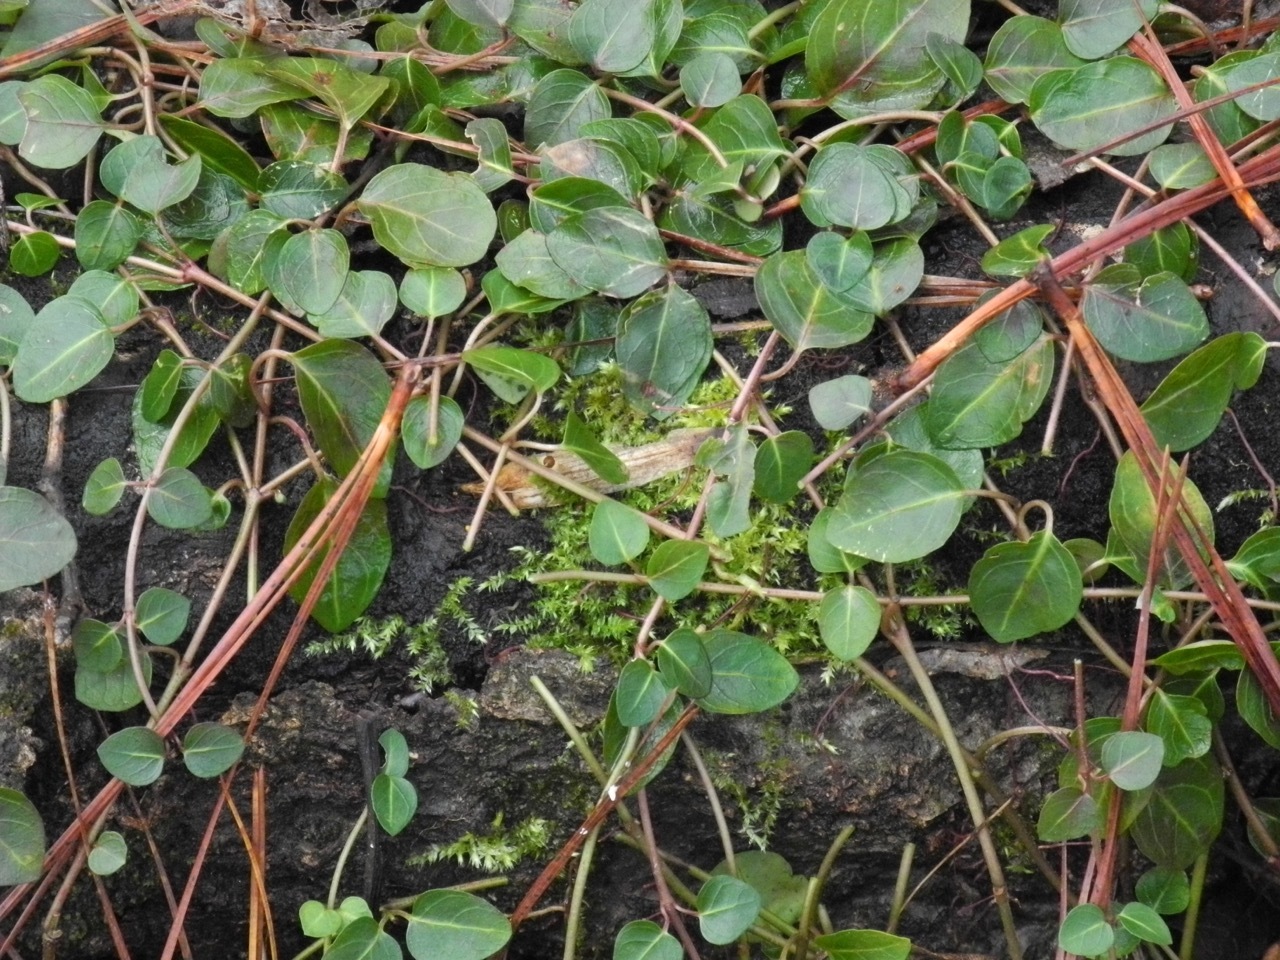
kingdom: Plantae
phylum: Tracheophyta
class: Magnoliopsida
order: Gentianales
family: Rubiaceae
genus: Mitchella
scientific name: Mitchella repens
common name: Partridge-berry
